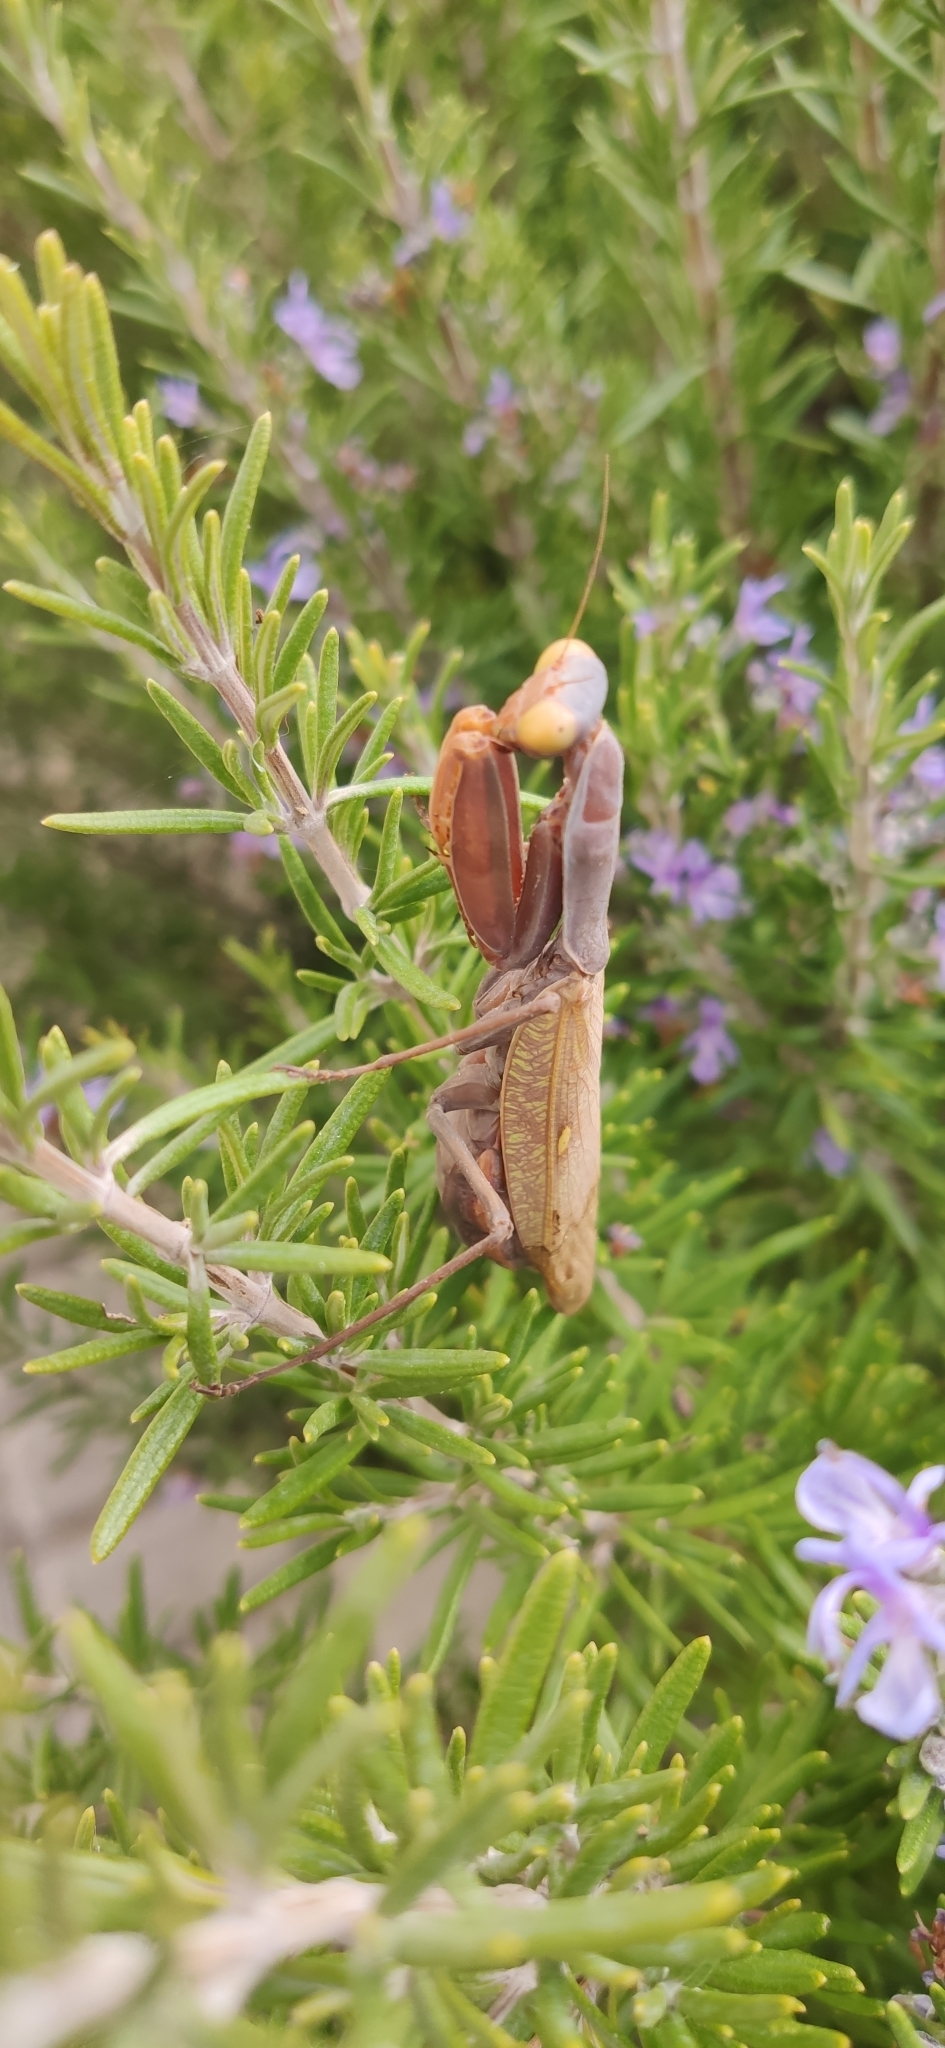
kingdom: Animalia
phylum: Arthropoda
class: Insecta
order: Mantodea
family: Mantidae
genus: Hierodula
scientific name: Hierodula transcaucasica
